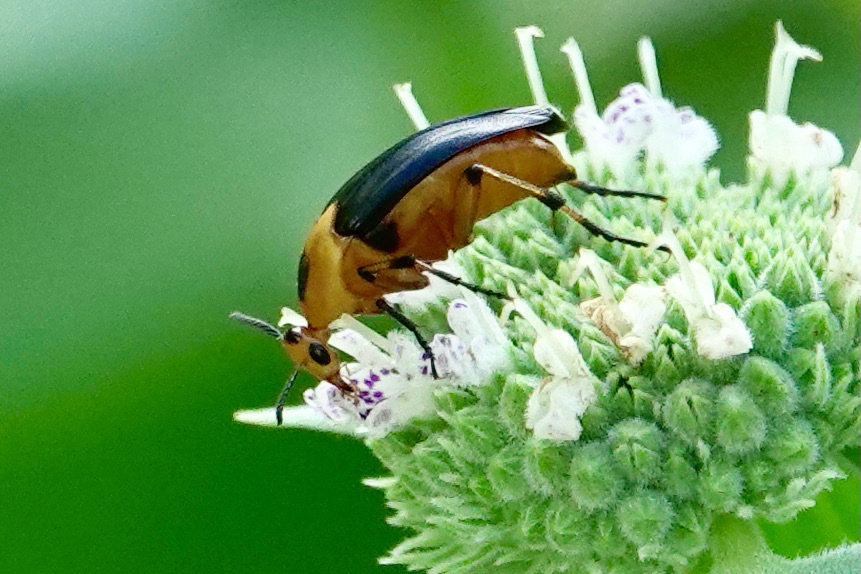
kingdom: Animalia
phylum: Arthropoda
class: Insecta
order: Coleoptera
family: Ripiphoridae
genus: Macrosiagon
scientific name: Macrosiagon limbatum
